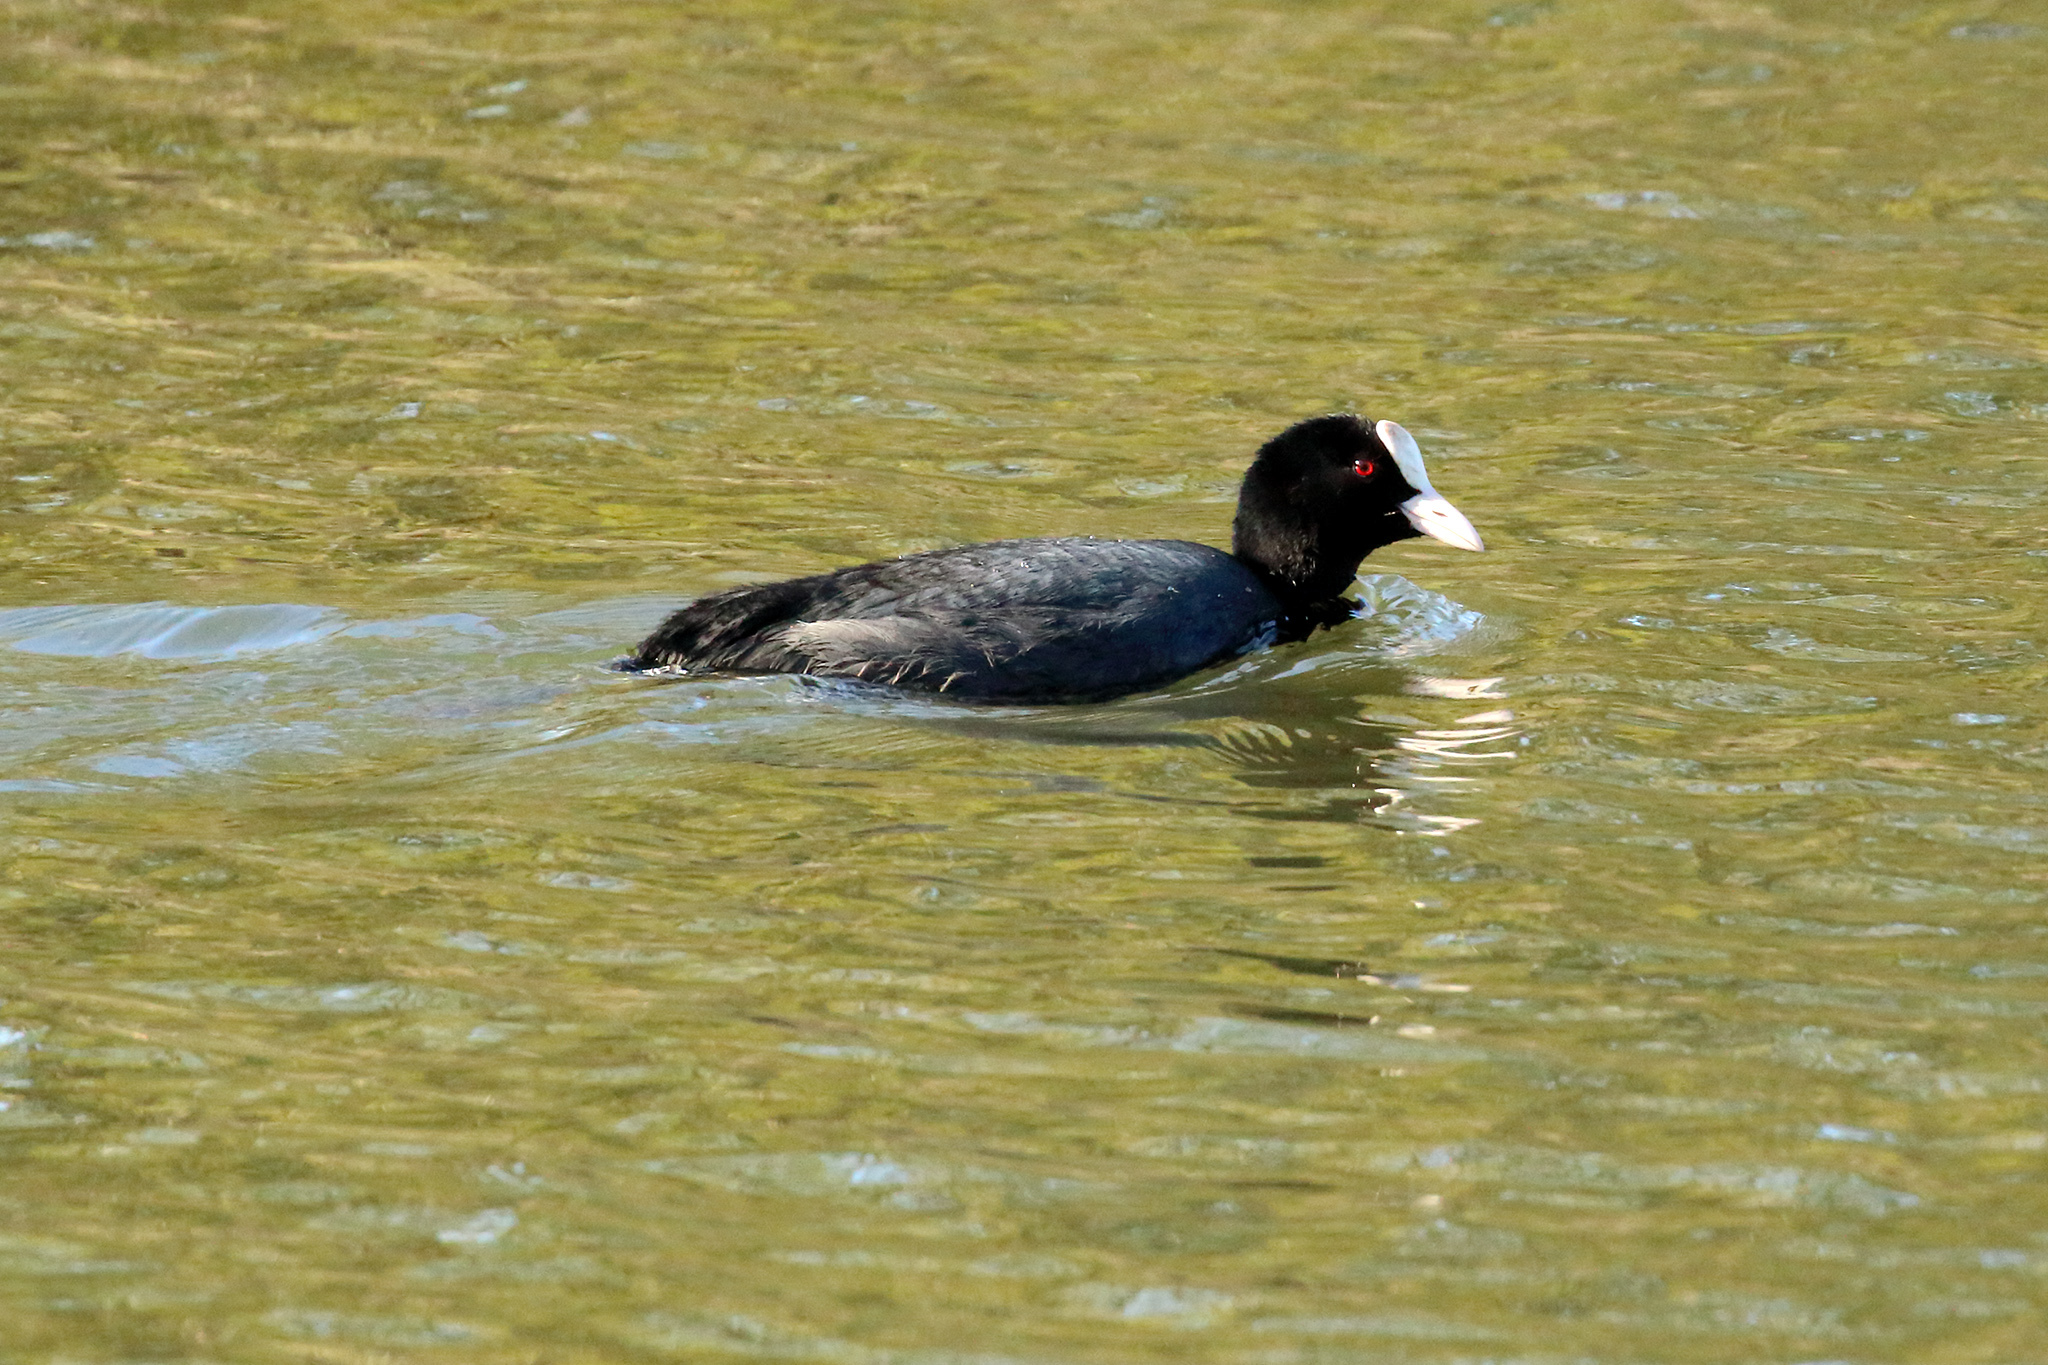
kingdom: Animalia
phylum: Chordata
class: Aves
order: Gruiformes
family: Rallidae
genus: Fulica
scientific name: Fulica atra
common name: Eurasian coot
